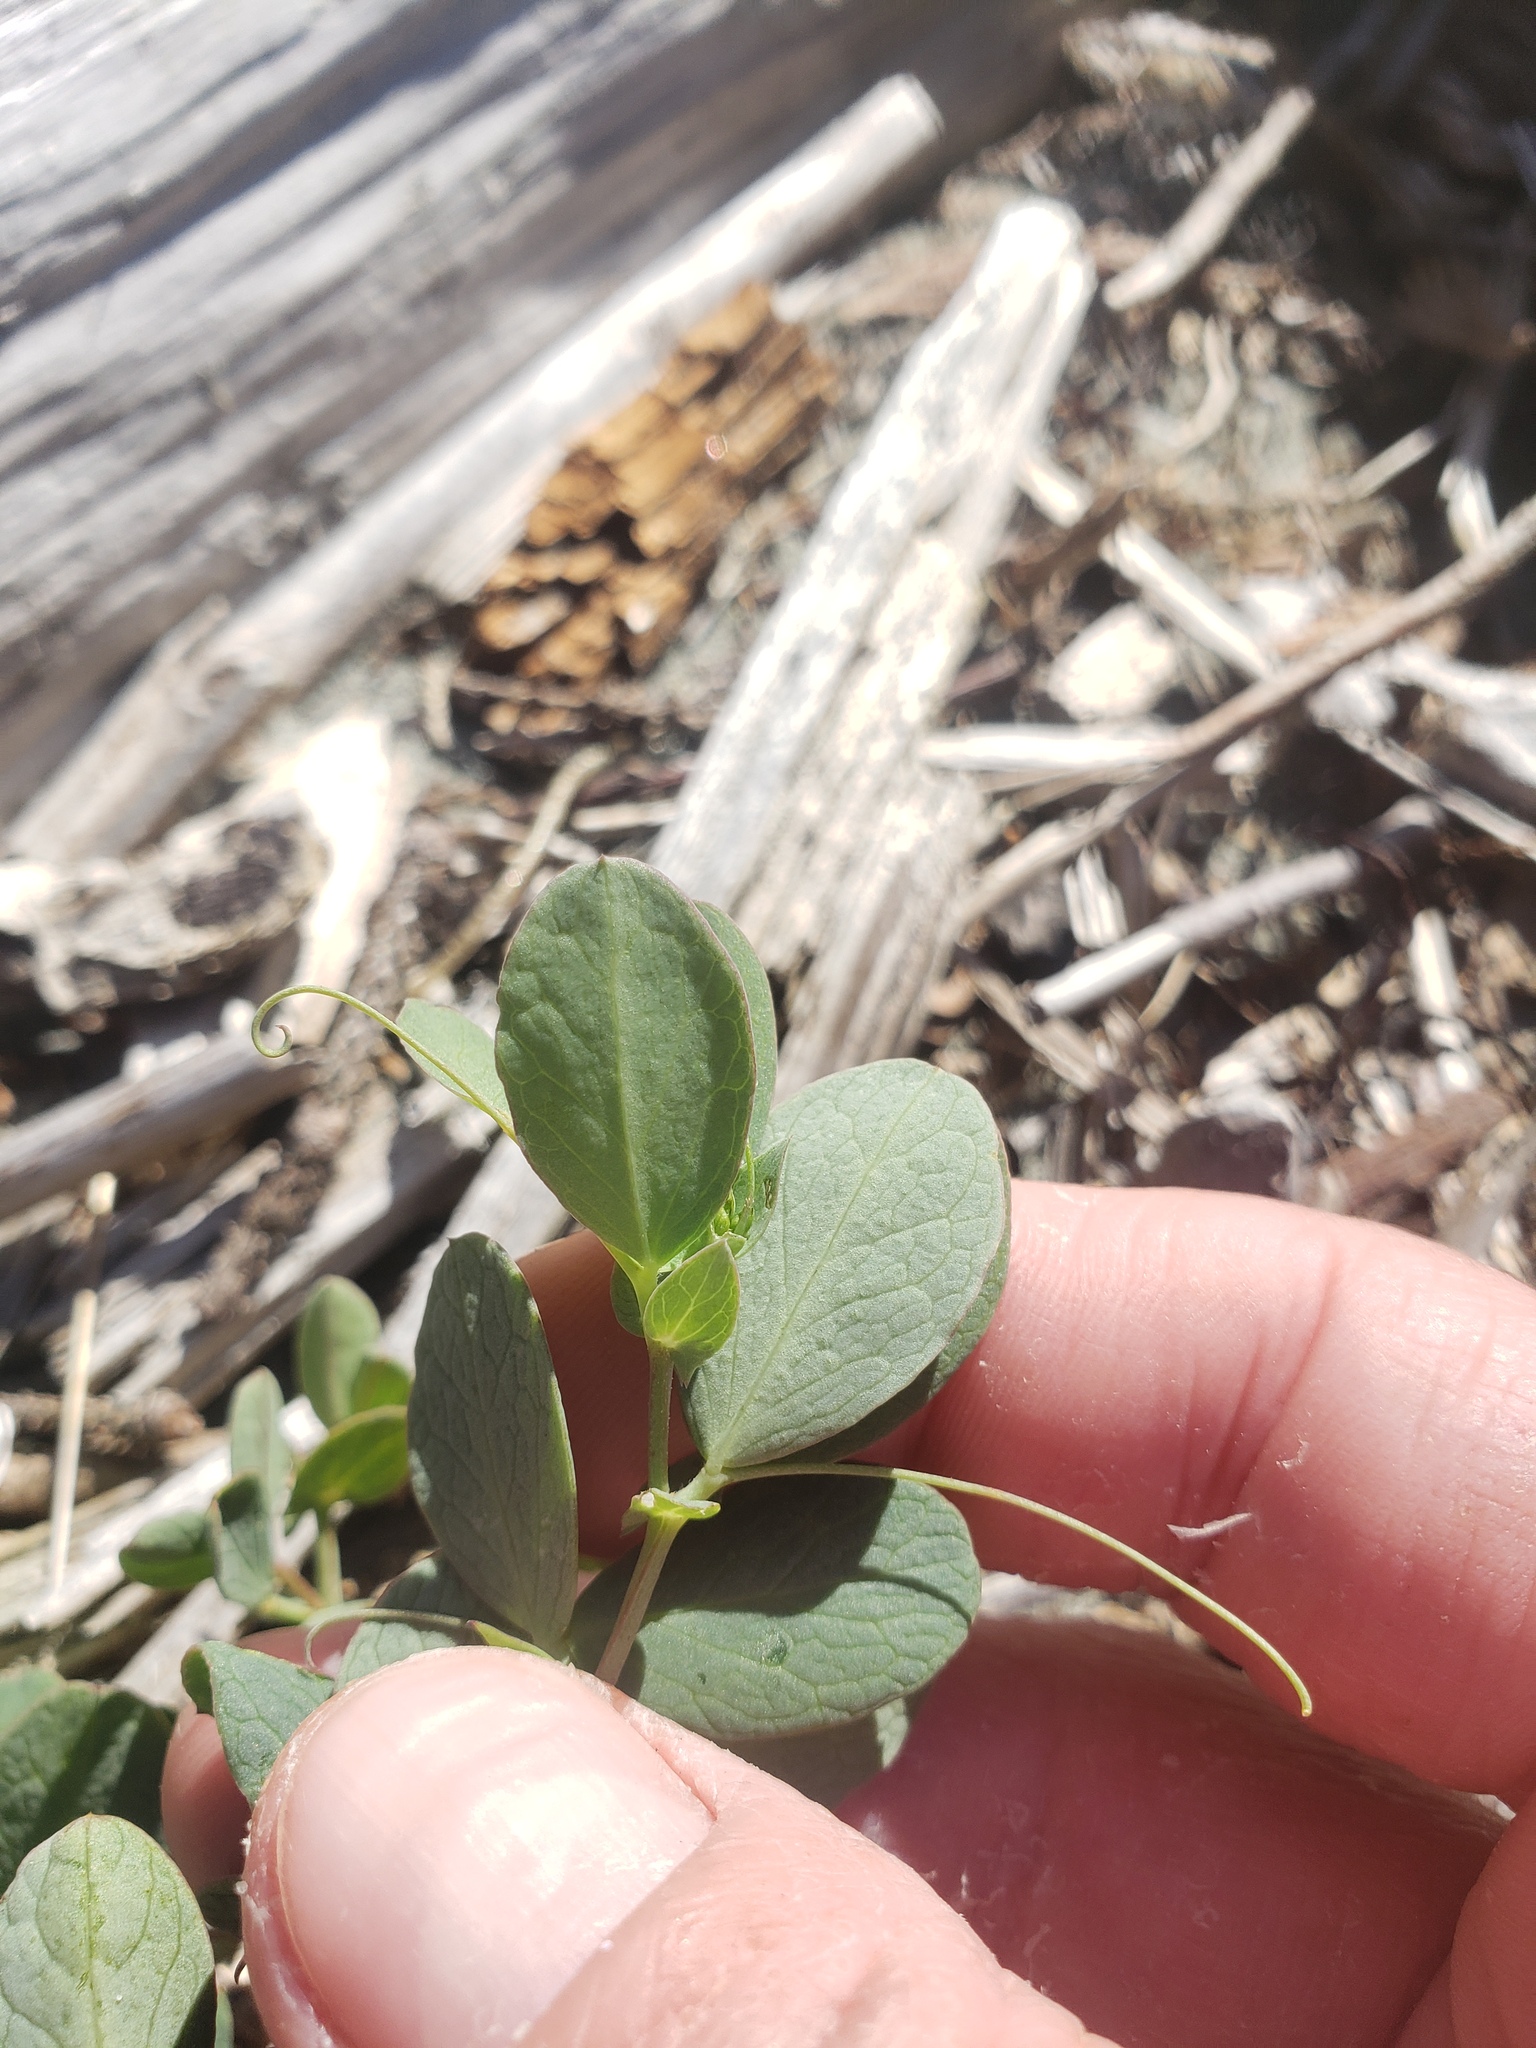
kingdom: Plantae
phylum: Tracheophyta
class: Magnoliopsida
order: Fabales
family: Fabaceae
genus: Lathyrus
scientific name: Lathyrus japonicus
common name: Sea pea
